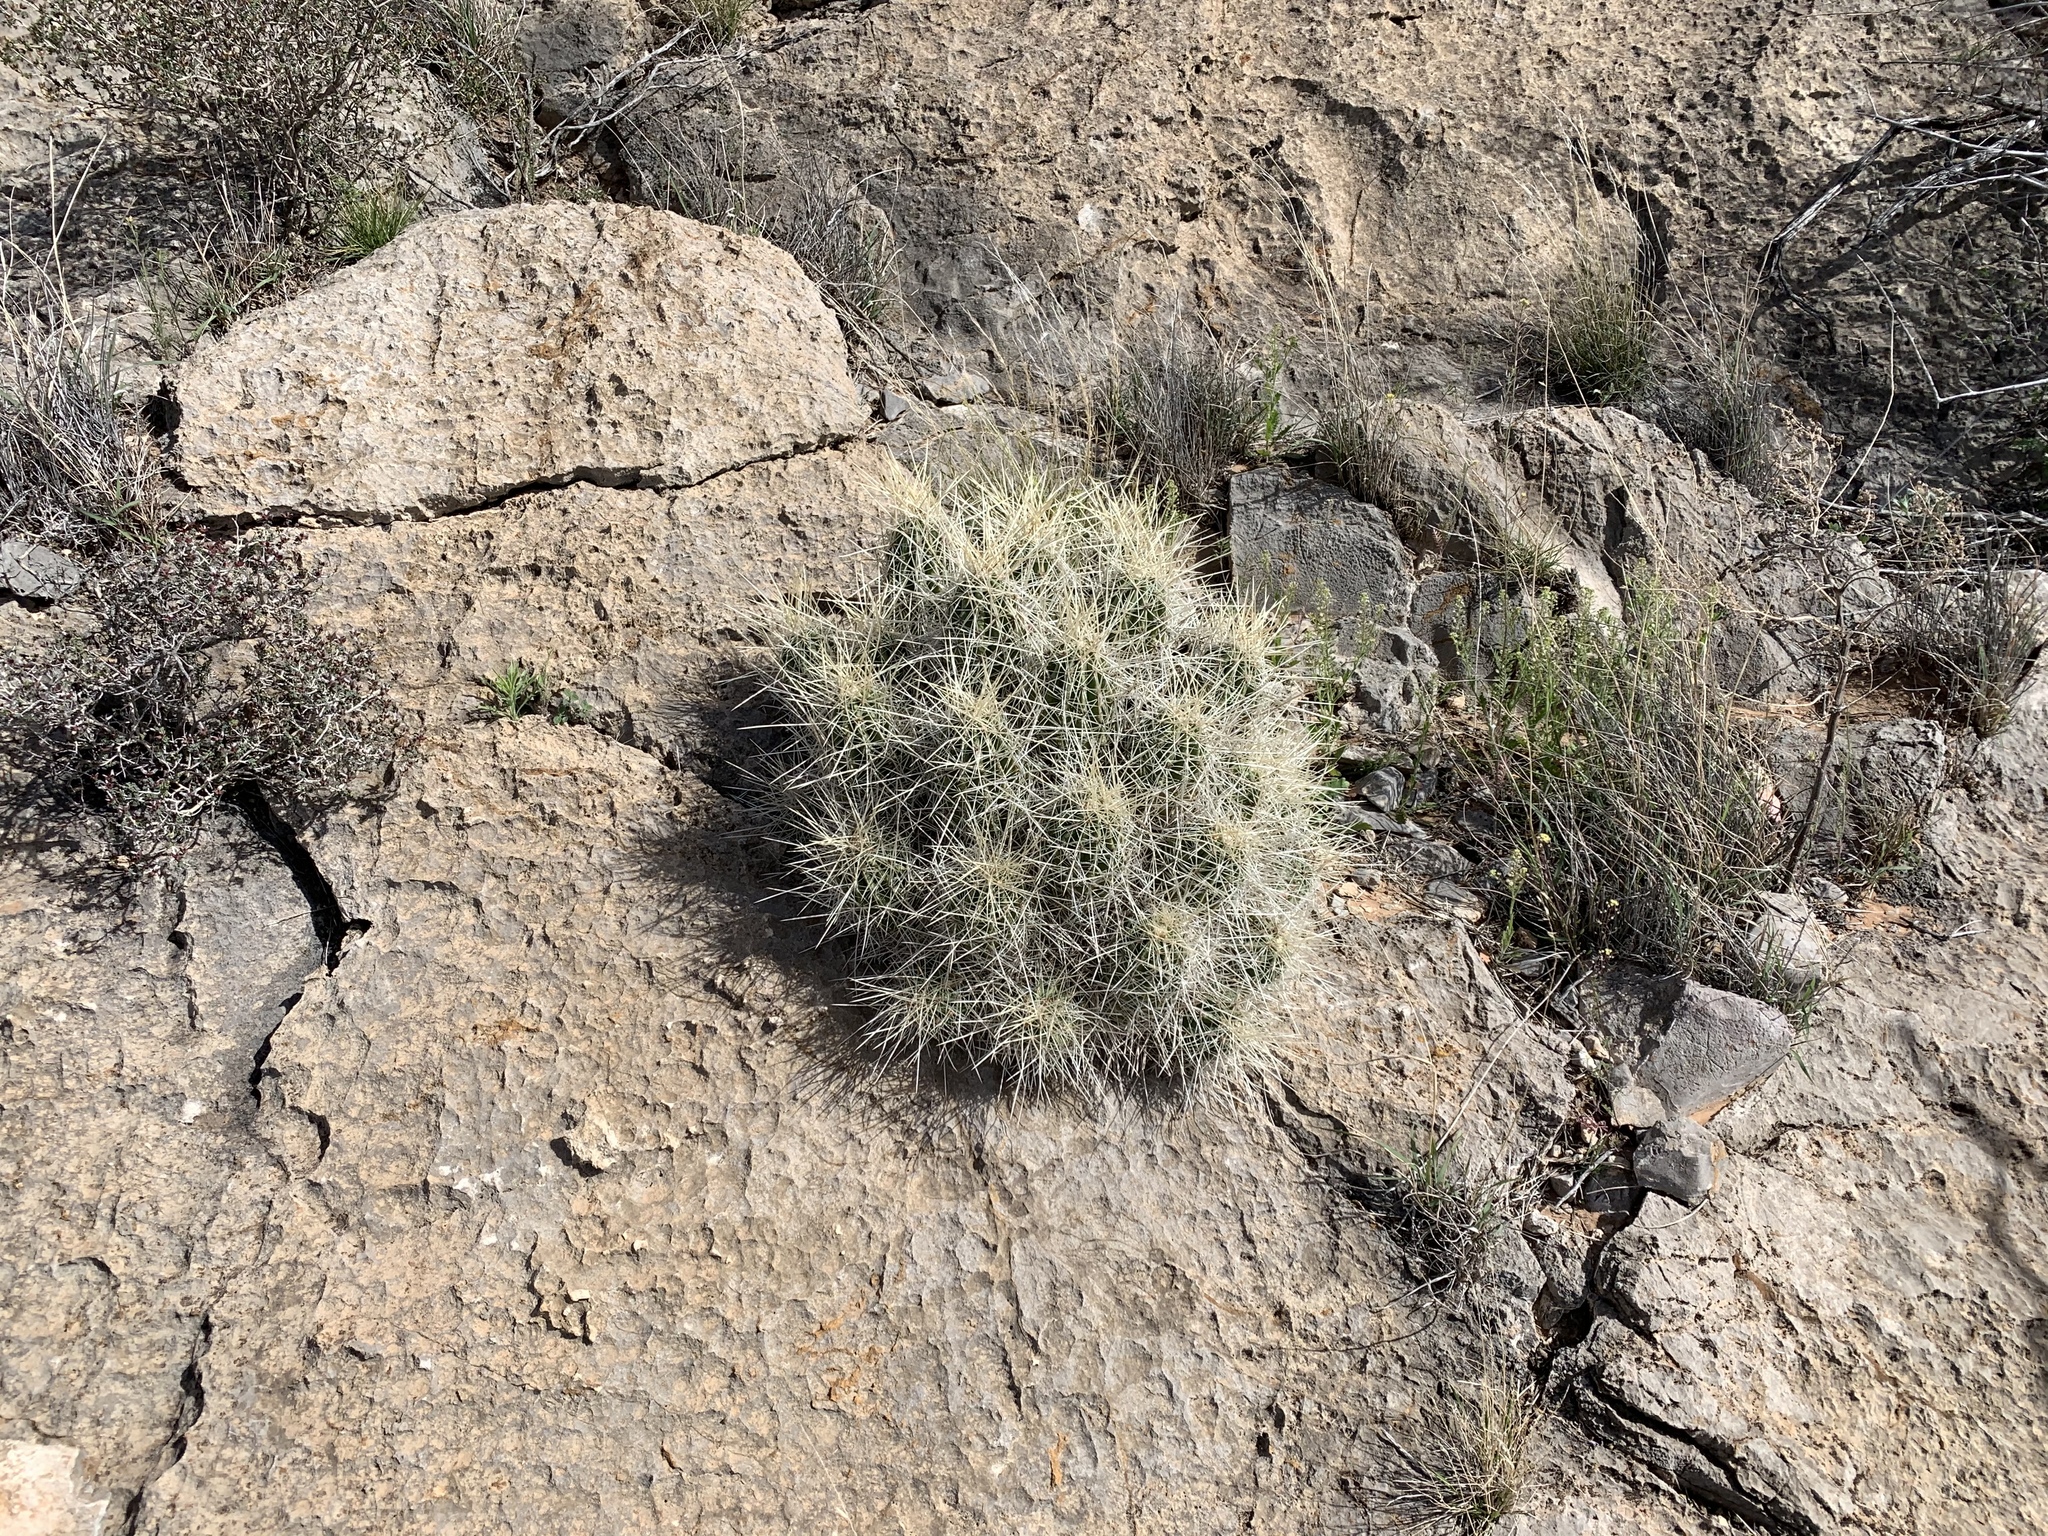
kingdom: Plantae
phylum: Tracheophyta
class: Magnoliopsida
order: Caryophyllales
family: Cactaceae
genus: Echinocereus
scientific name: Echinocereus stramineus
